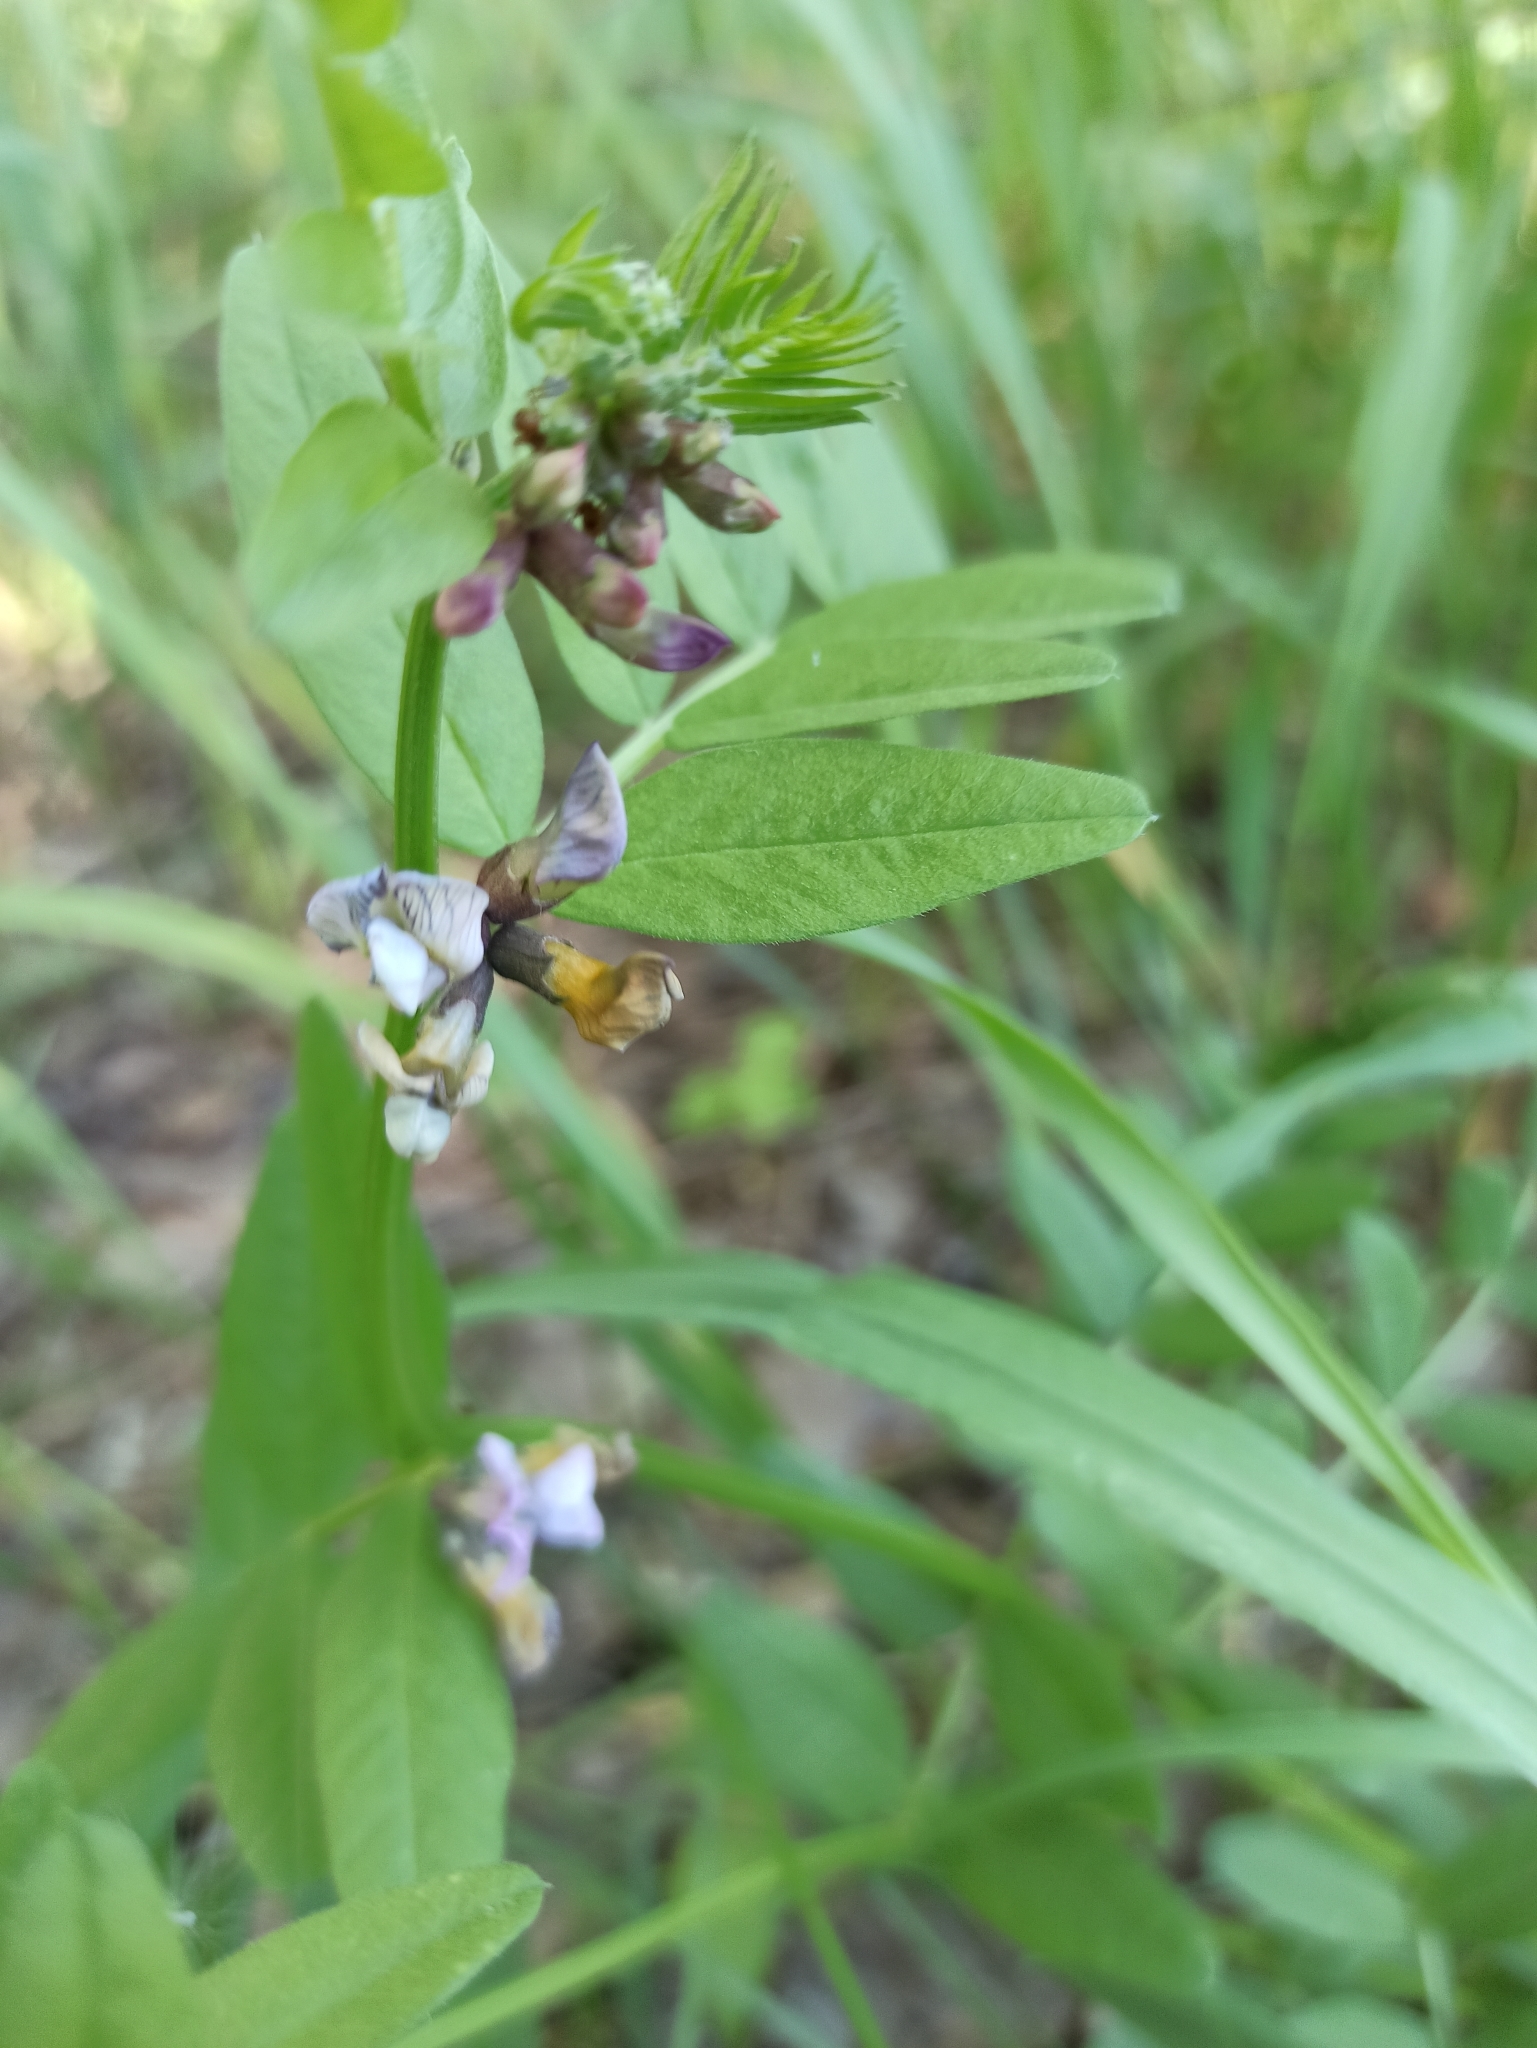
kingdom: Plantae
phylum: Tracheophyta
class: Magnoliopsida
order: Fabales
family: Fabaceae
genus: Vicia
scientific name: Vicia sepium
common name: Bush vetch
